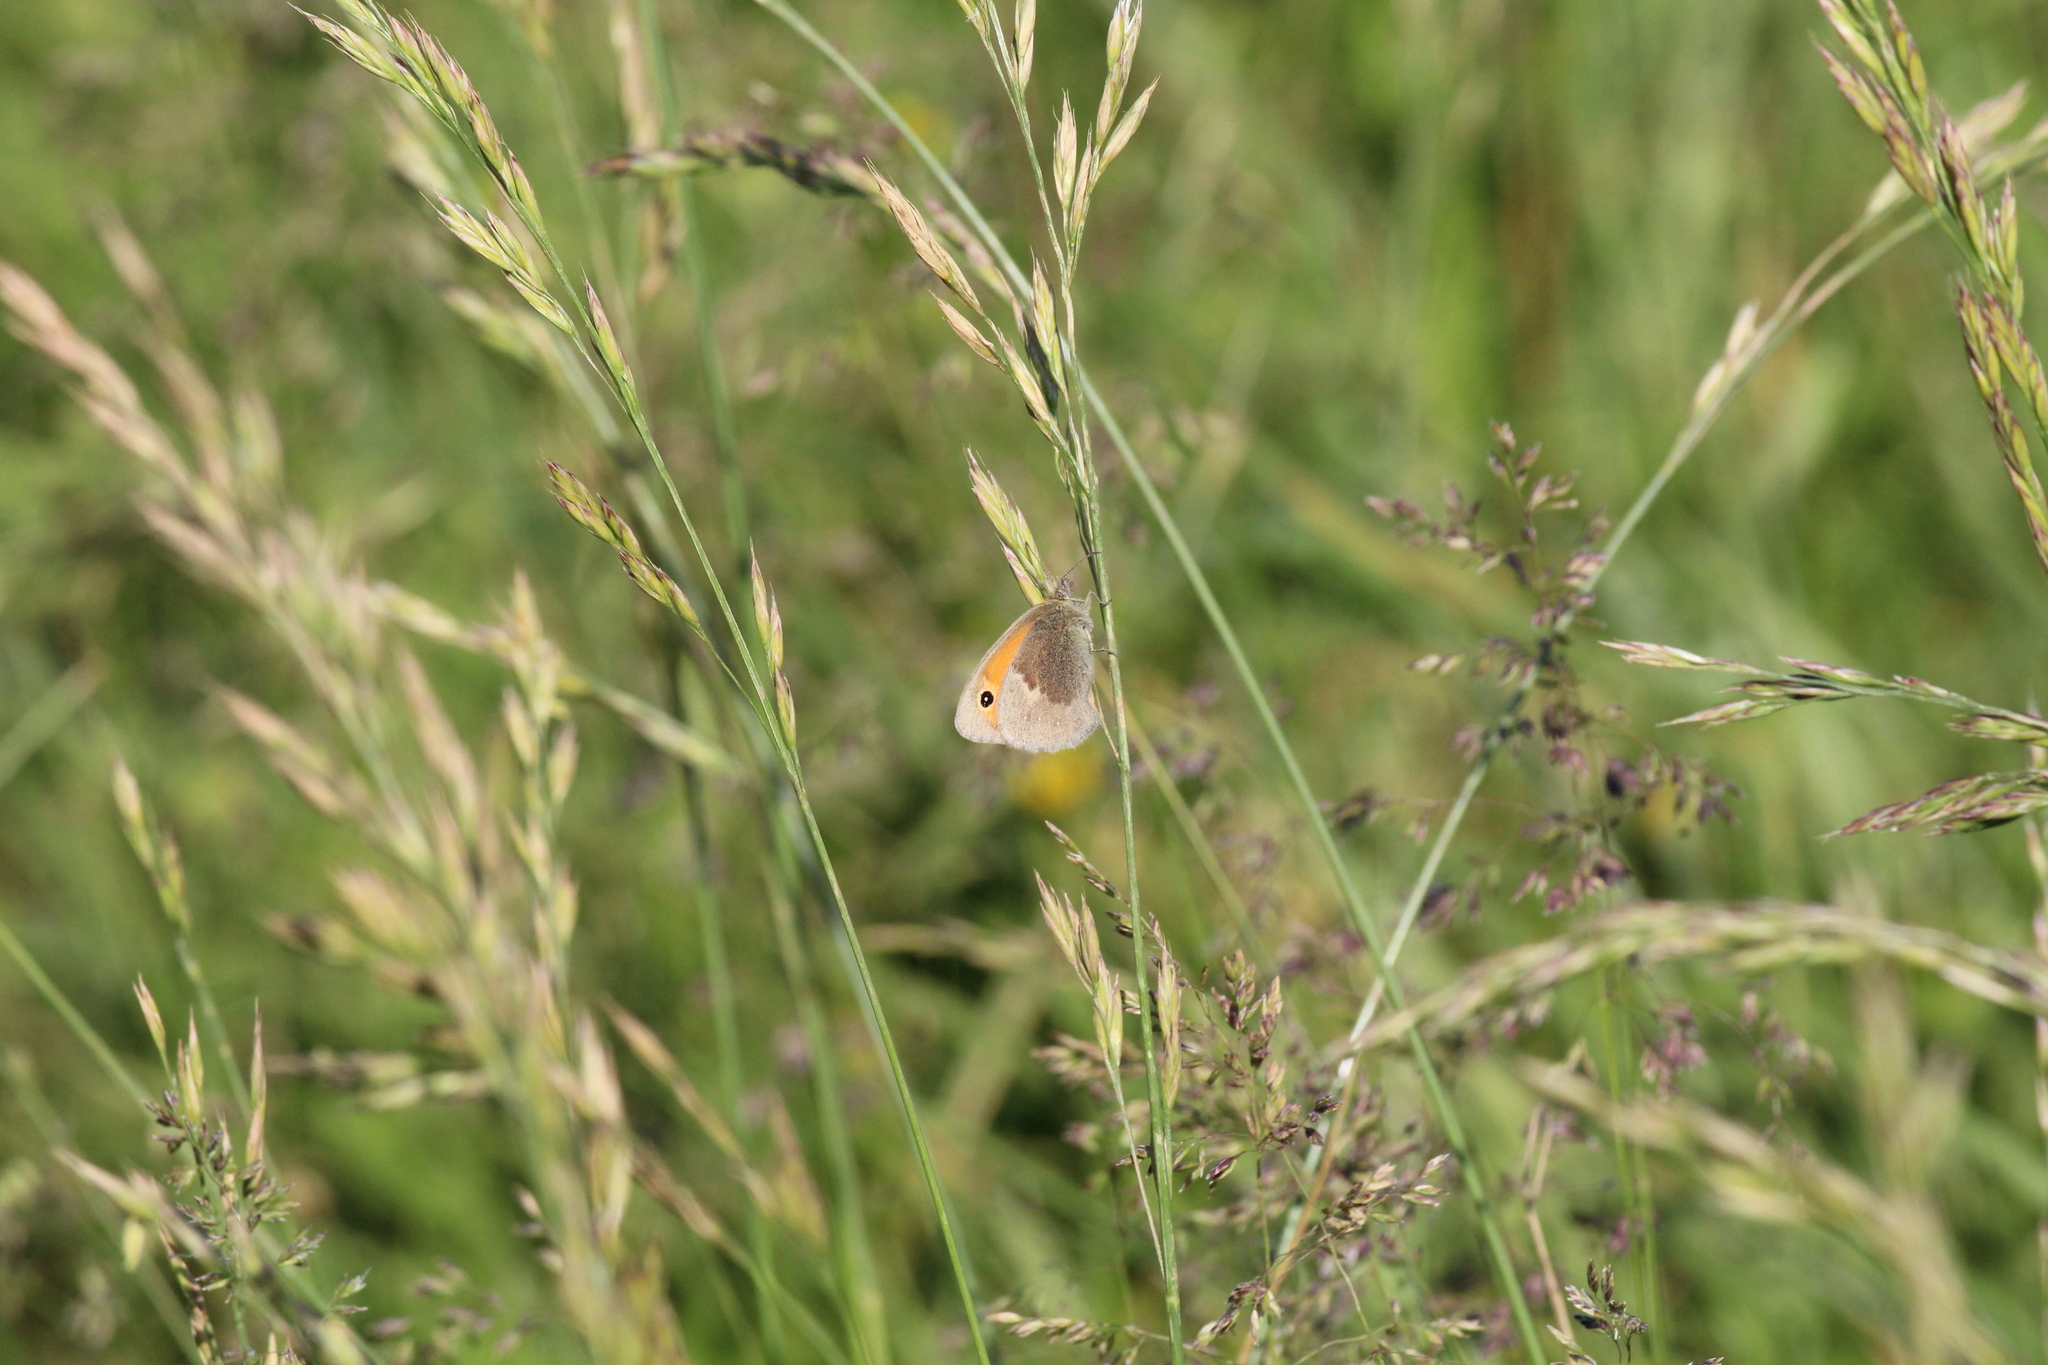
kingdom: Animalia
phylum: Arthropoda
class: Insecta
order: Lepidoptera
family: Nymphalidae
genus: Coenonympha
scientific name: Coenonympha pamphilus
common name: Small heath
